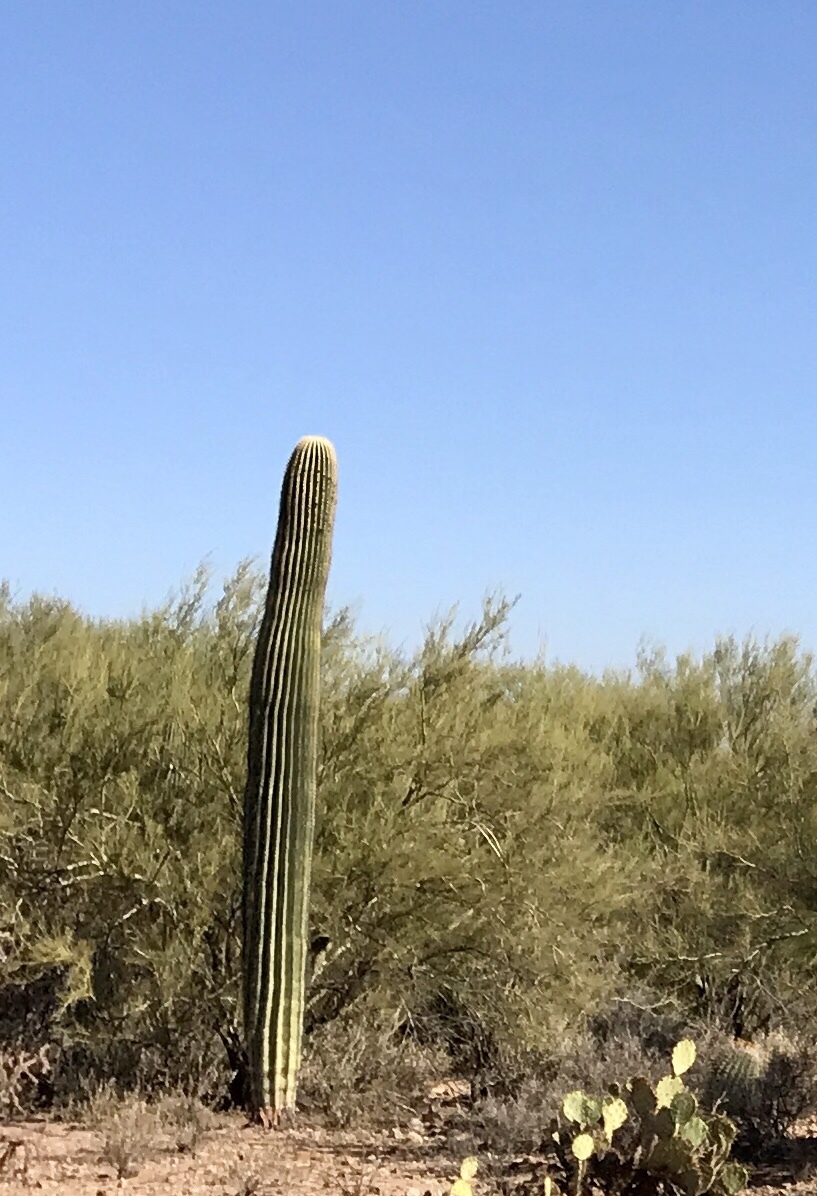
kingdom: Plantae
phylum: Tracheophyta
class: Magnoliopsida
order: Caryophyllales
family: Cactaceae
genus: Carnegiea
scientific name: Carnegiea gigantea
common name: Saguaro
